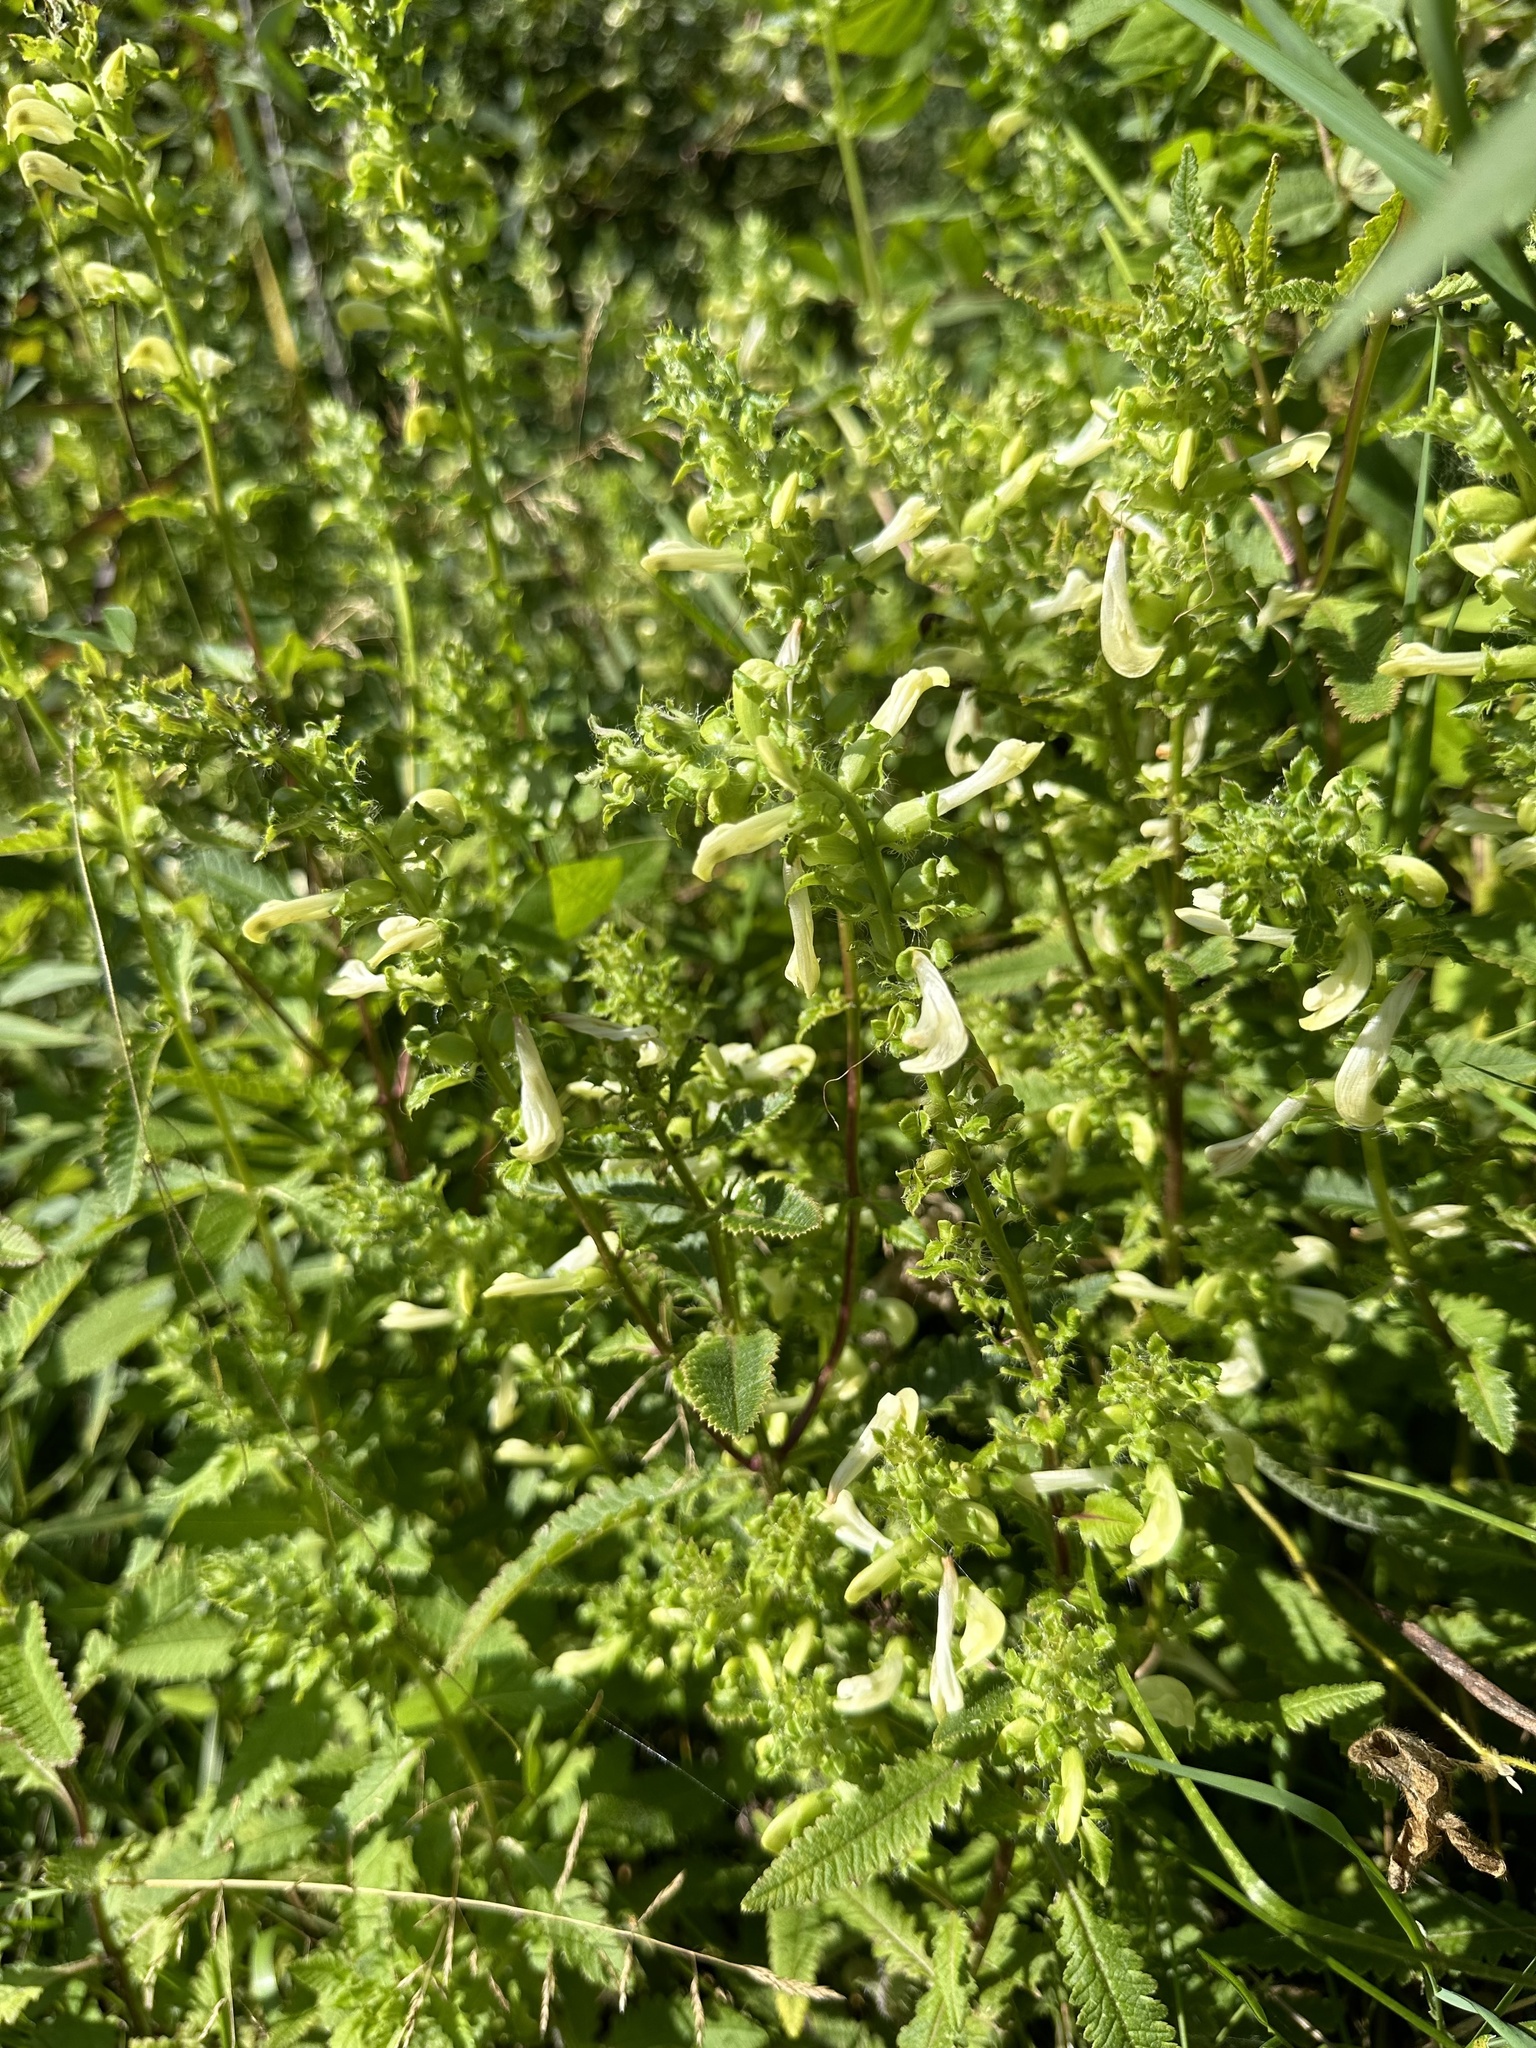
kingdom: Plantae
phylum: Tracheophyta
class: Magnoliopsida
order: Lamiales
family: Orobanchaceae
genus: Pedicularis
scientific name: Pedicularis lanceolata
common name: Swamp lousewort
